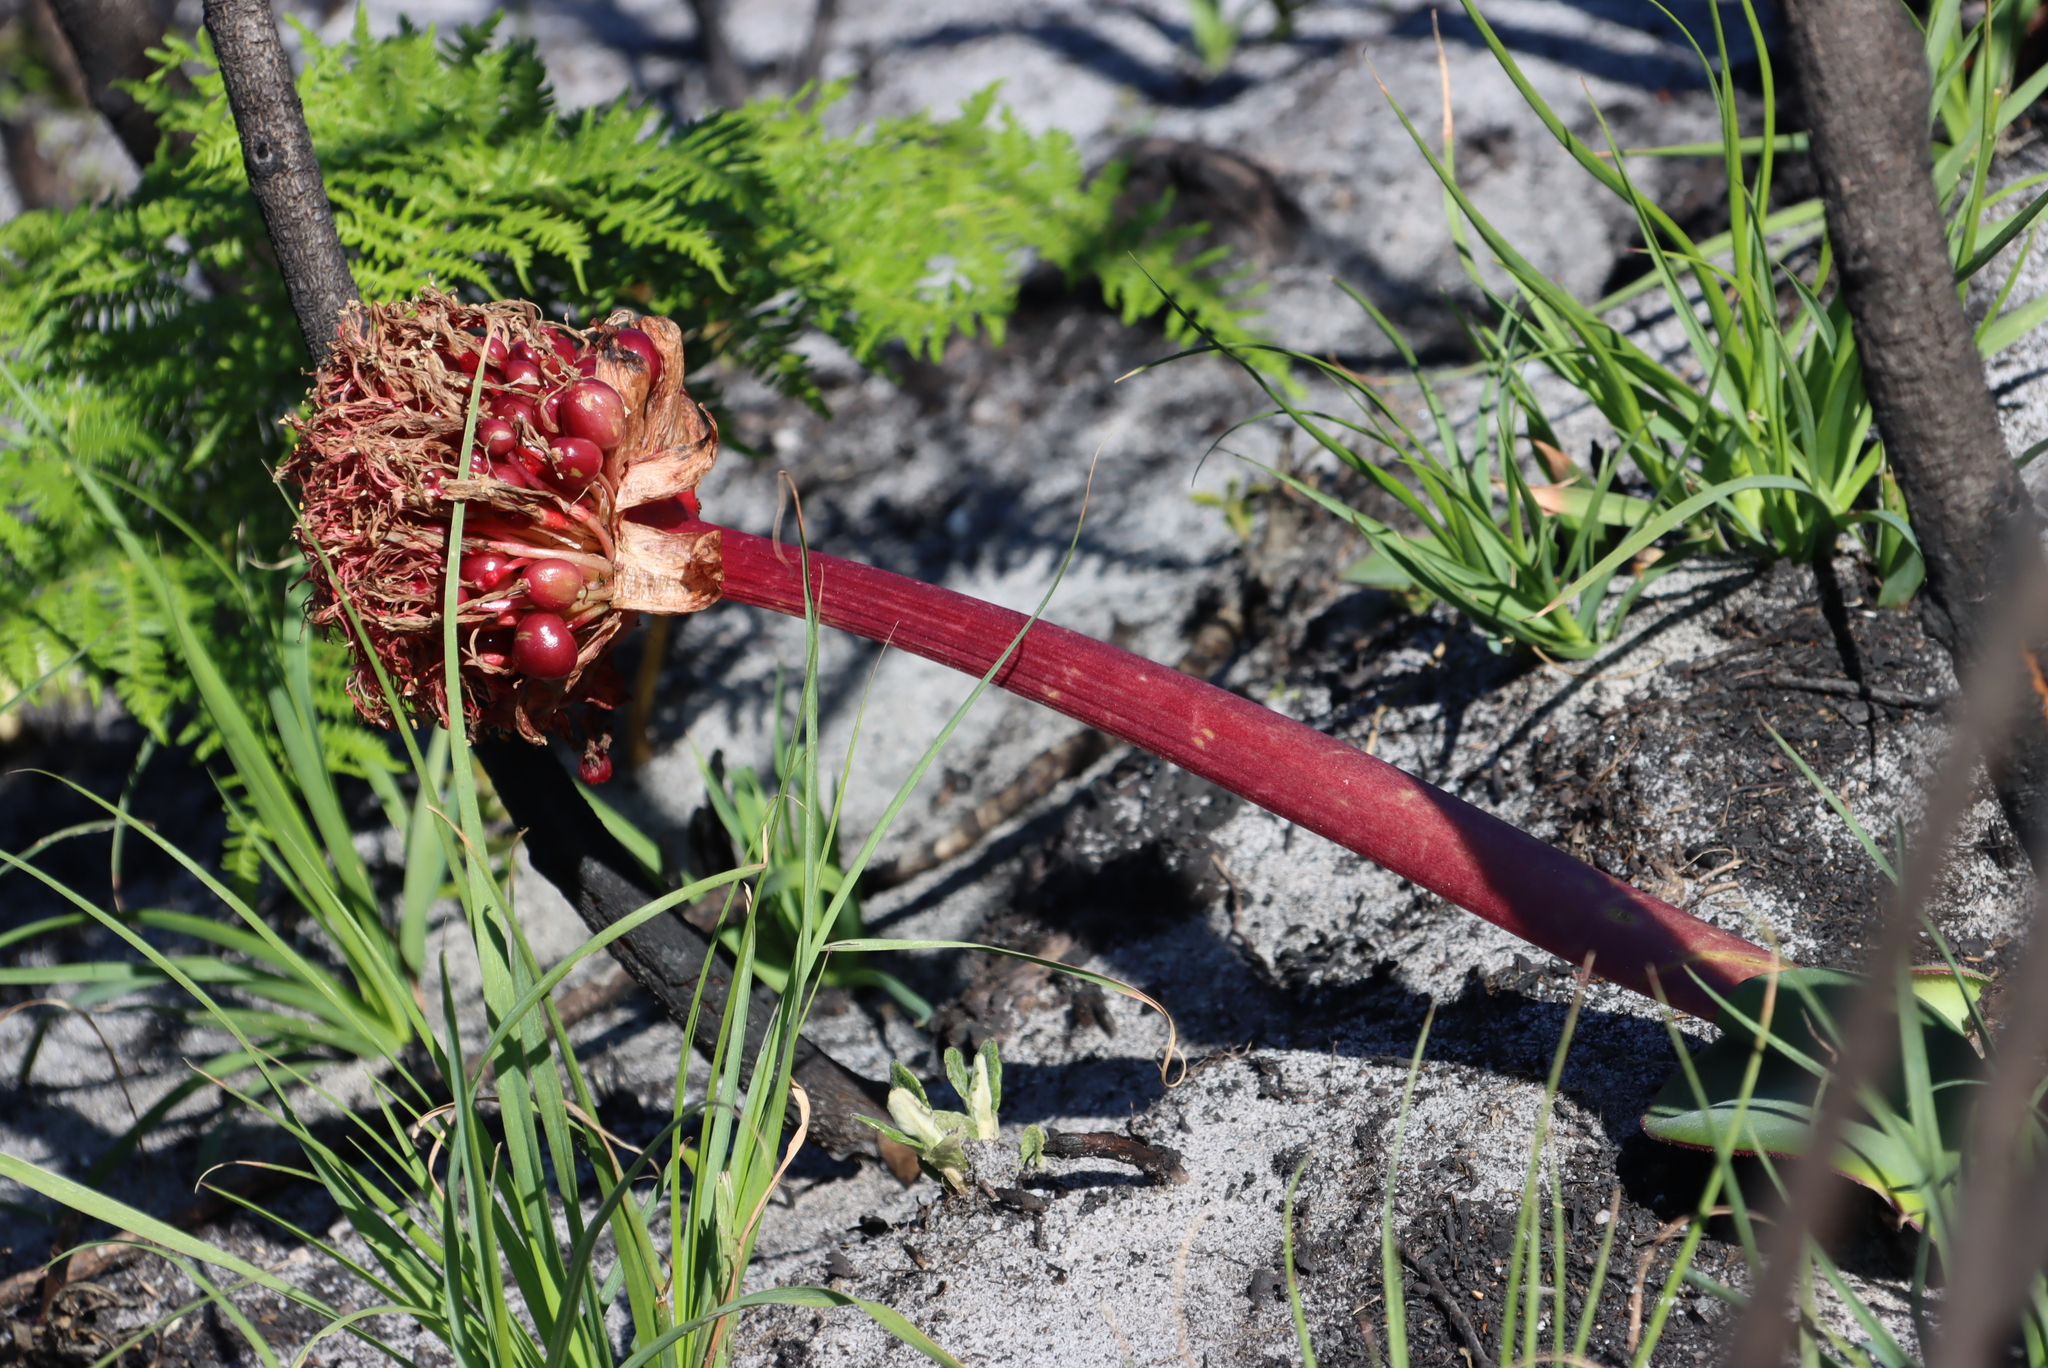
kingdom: Plantae
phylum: Tracheophyta
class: Liliopsida
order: Asparagales
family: Amaryllidaceae
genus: Haemanthus
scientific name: Haemanthus sanguineus
